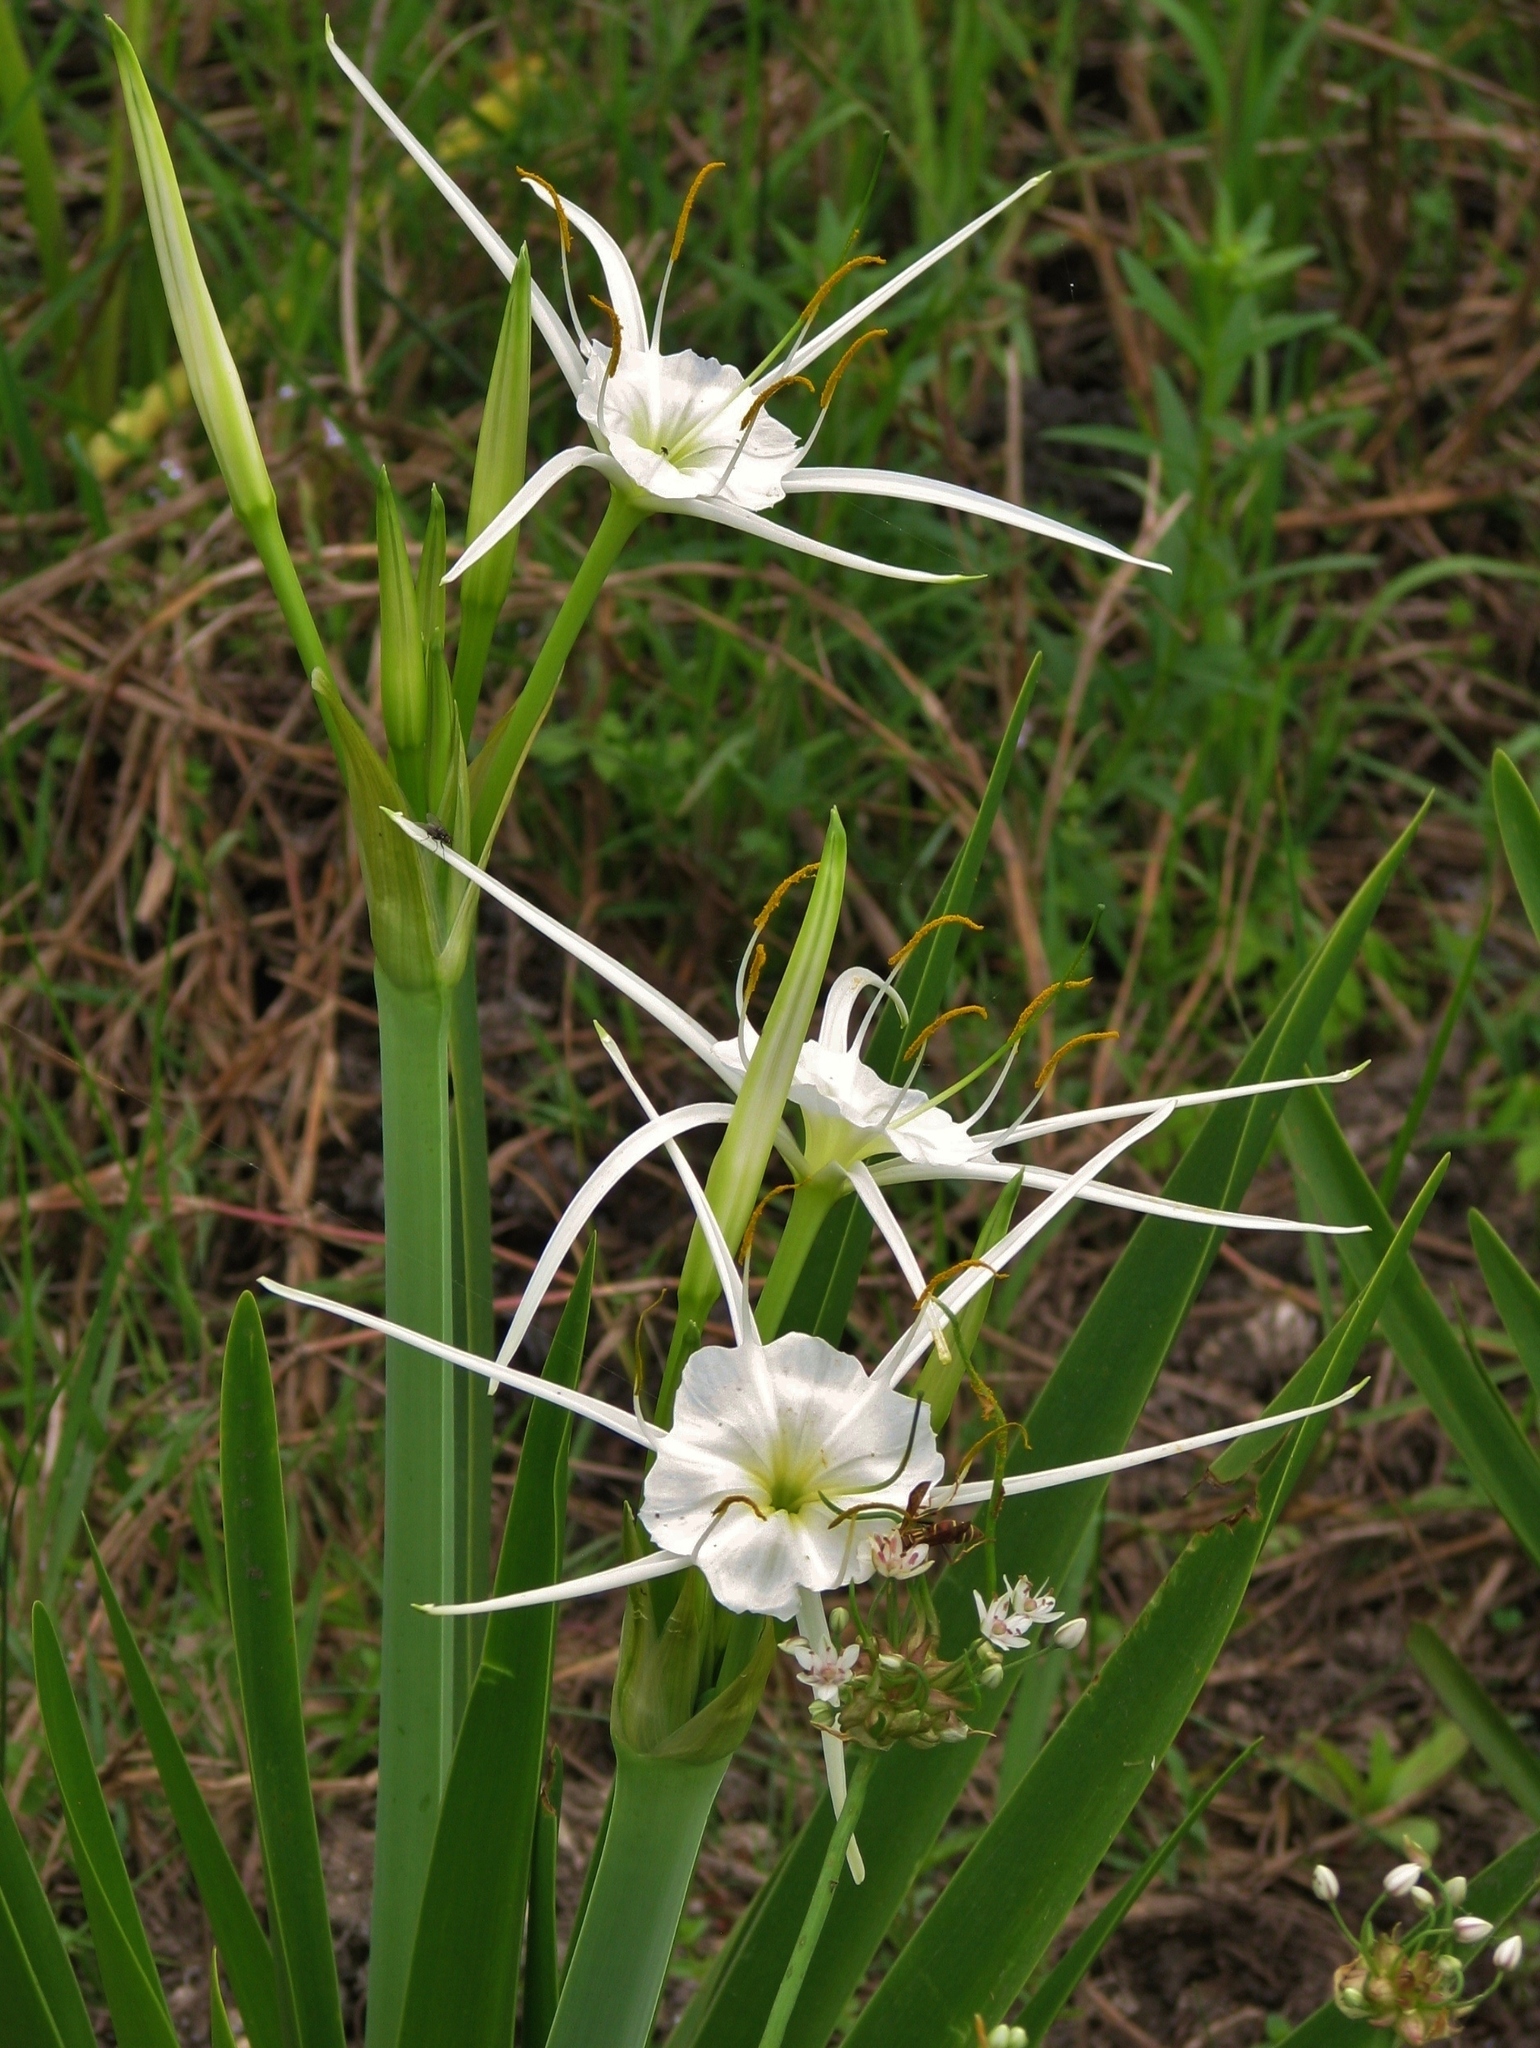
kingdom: Plantae
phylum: Tracheophyta
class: Liliopsida
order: Asparagales
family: Amaryllidaceae
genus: Hymenocallis
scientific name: Hymenocallis liriosme
